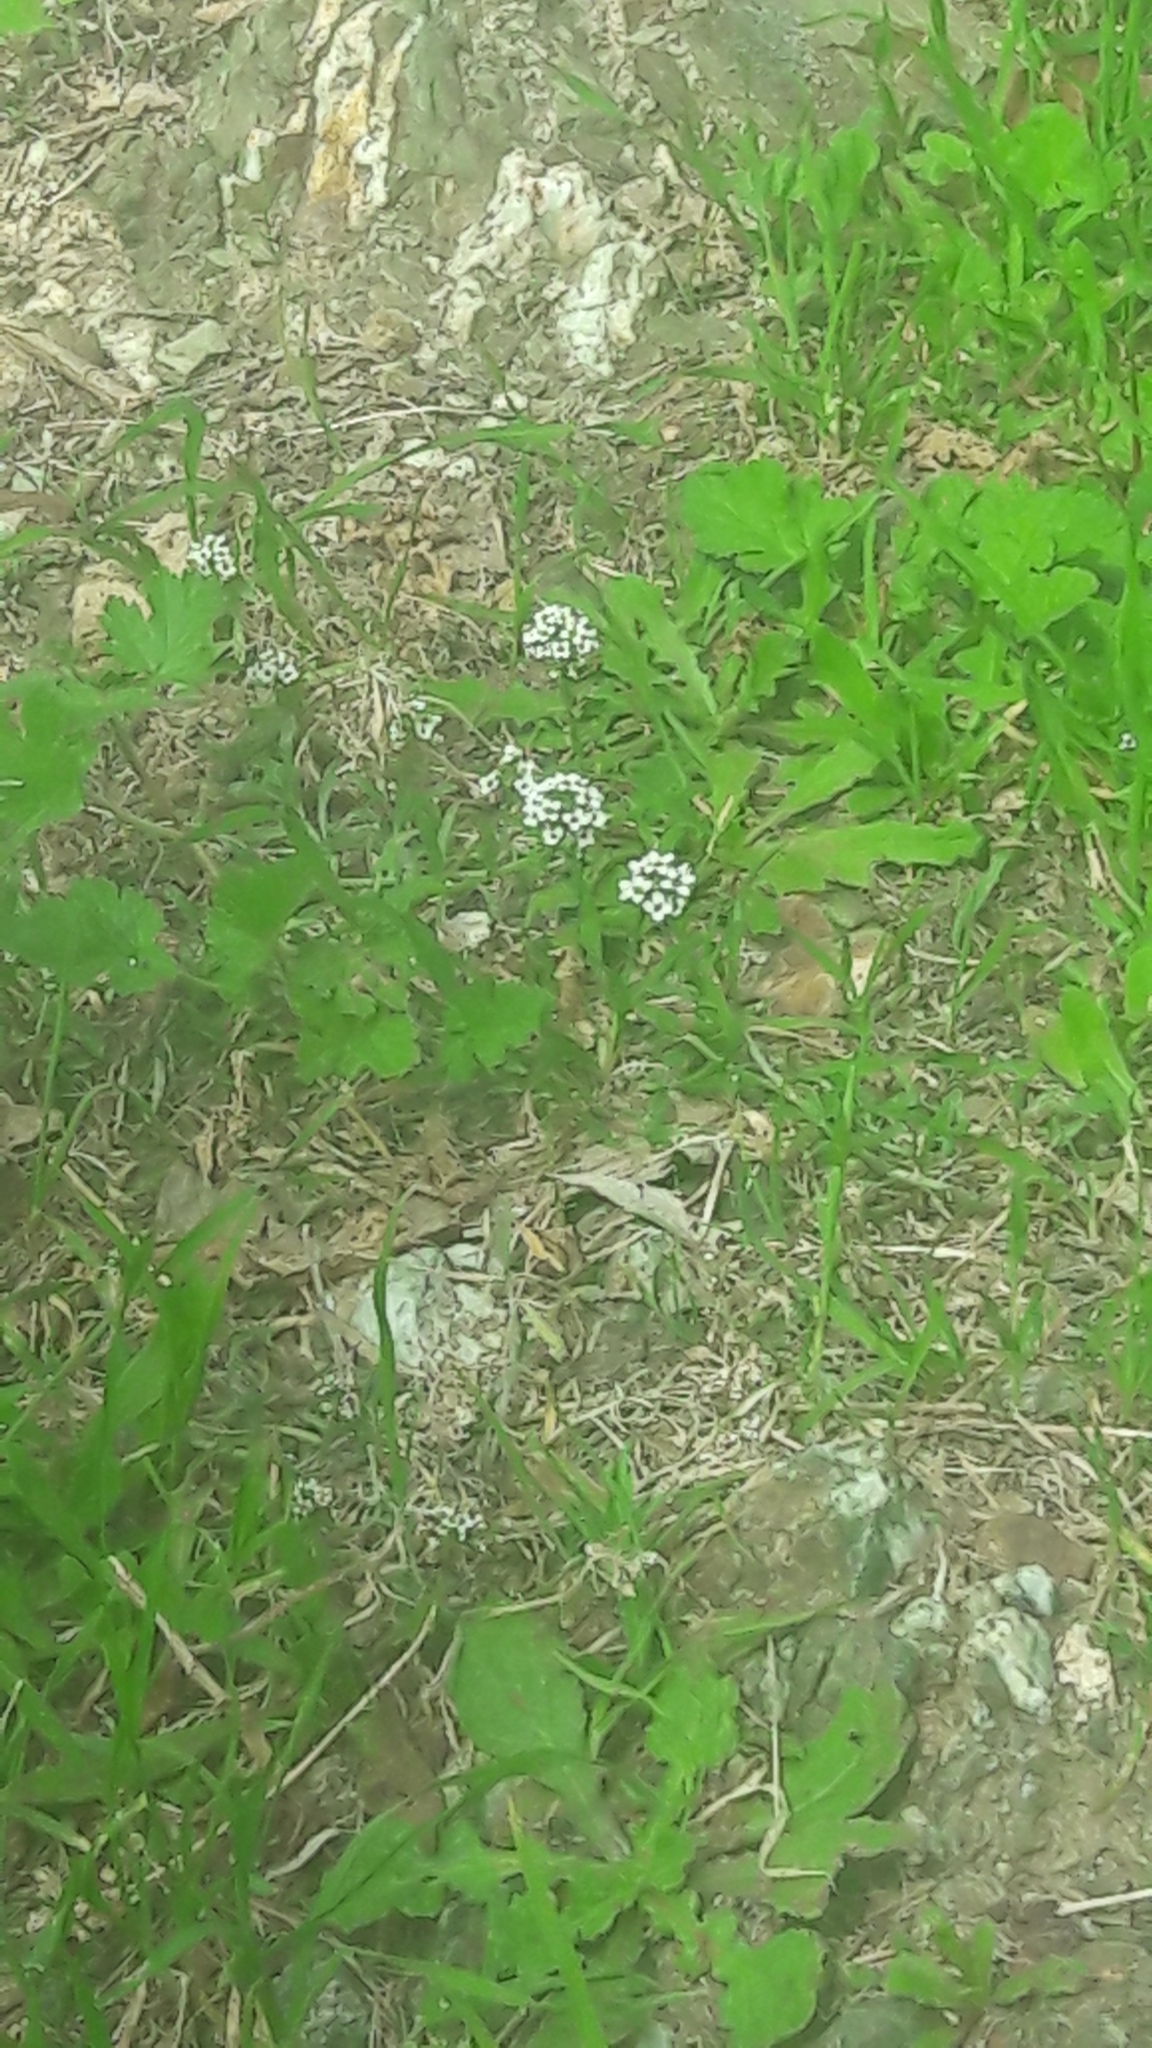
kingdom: Plantae
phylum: Tracheophyta
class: Magnoliopsida
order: Brassicales
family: Brassicaceae
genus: Lobularia
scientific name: Lobularia maritima
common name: Sweet alison
